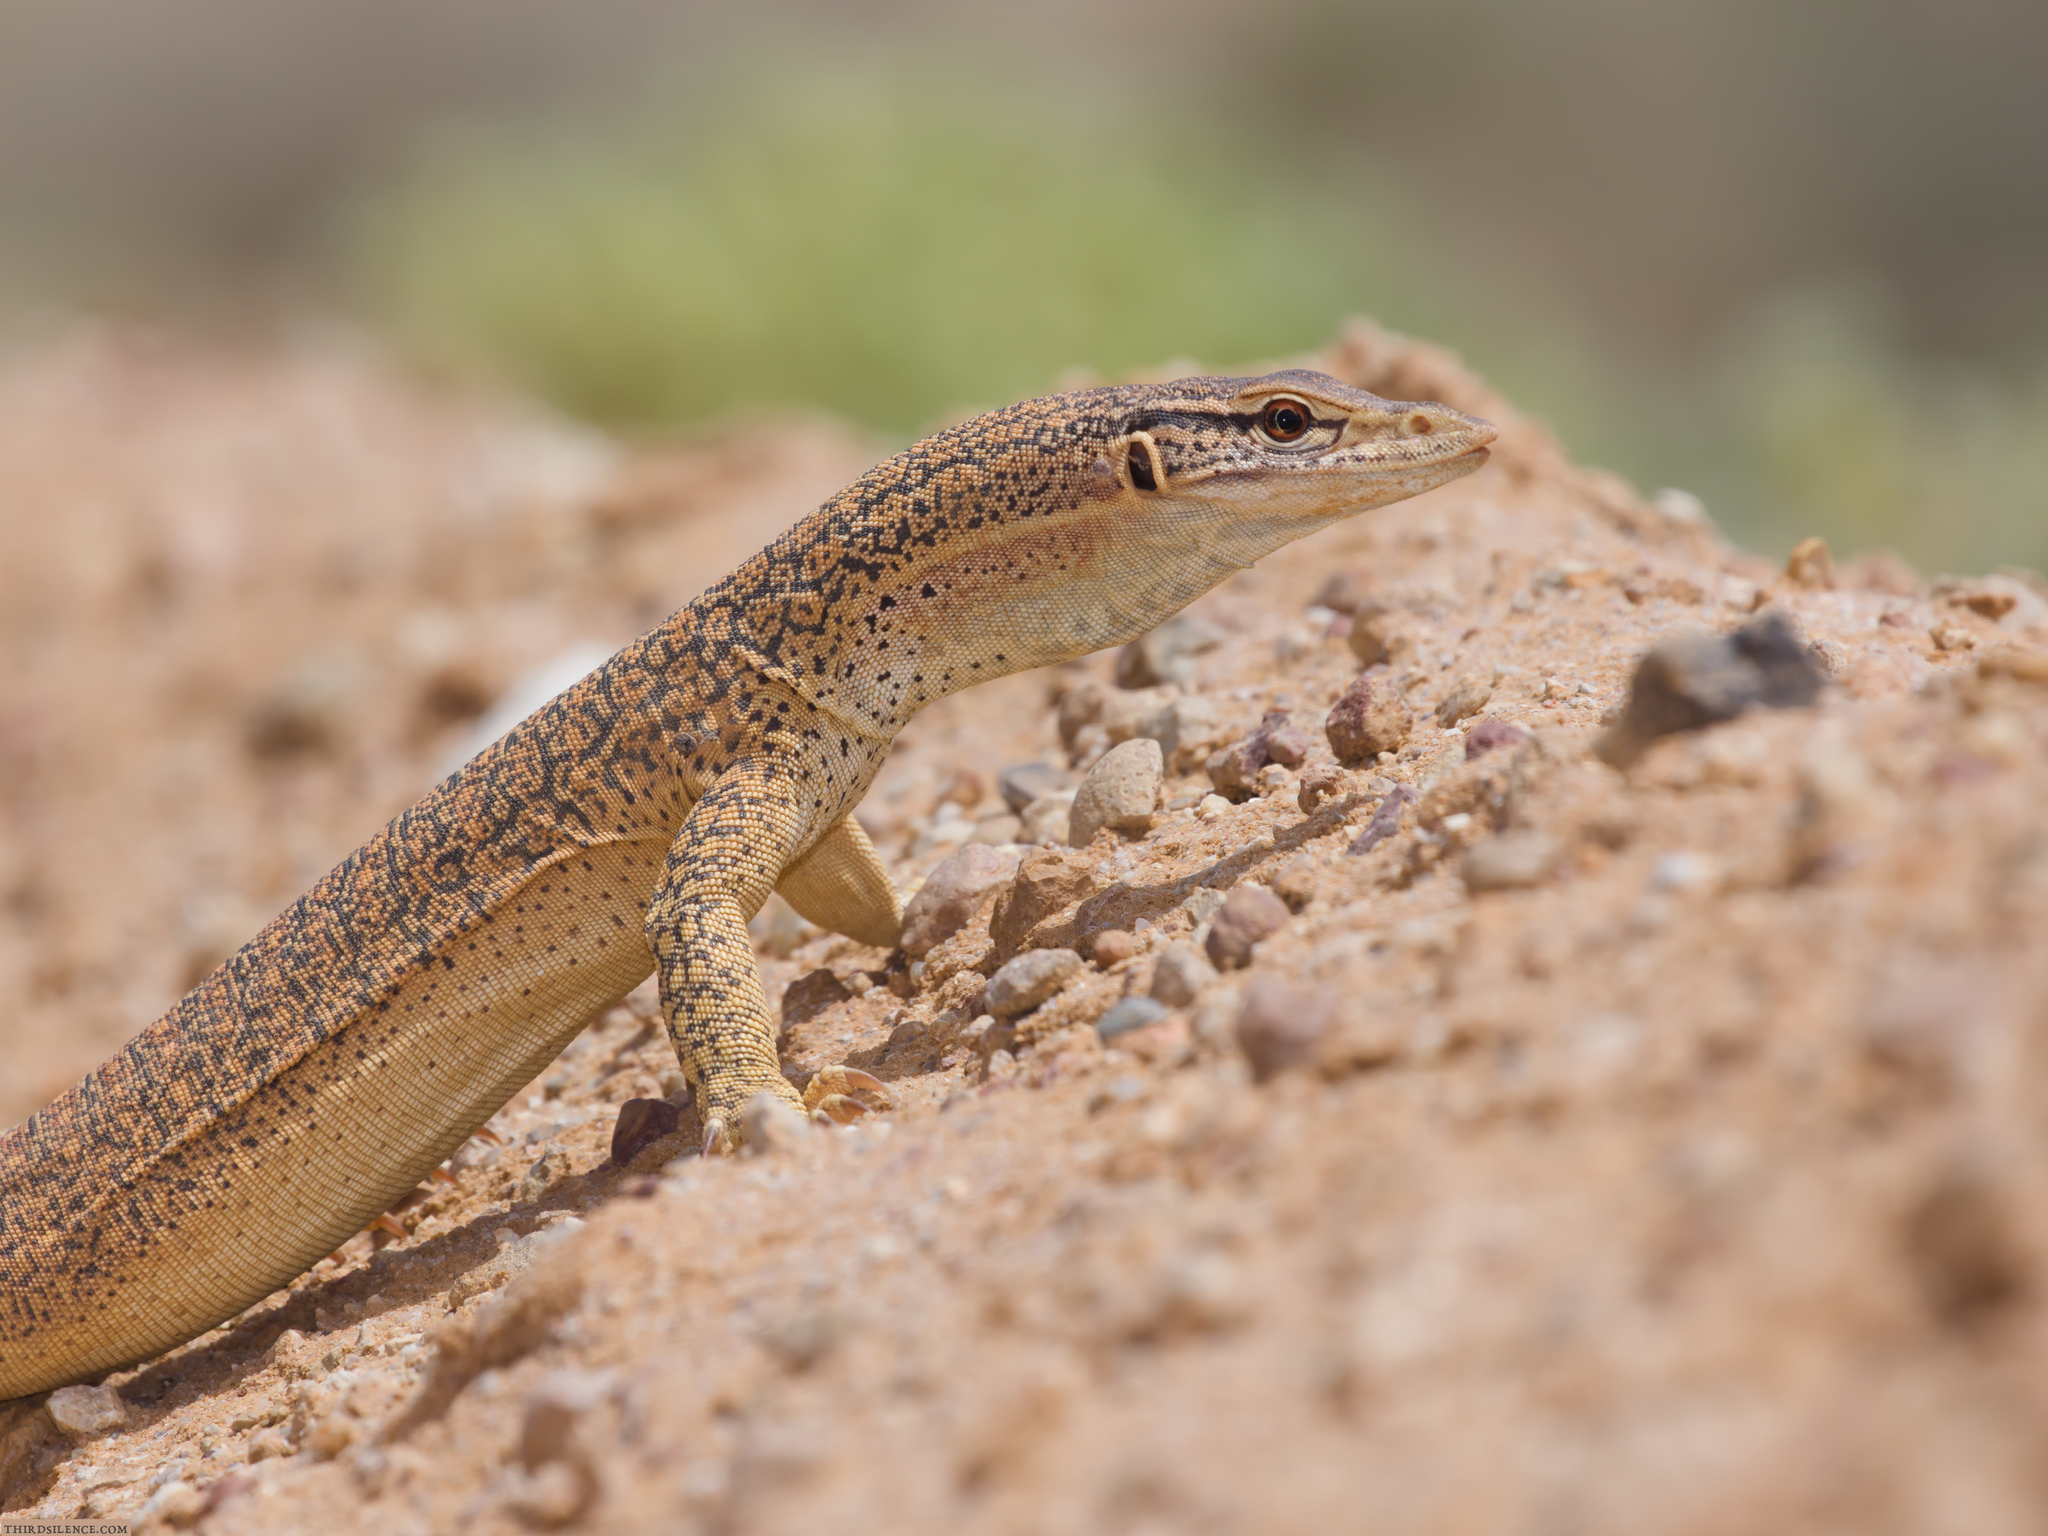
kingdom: Animalia
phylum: Chordata
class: Squamata
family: Varanidae
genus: Varanus
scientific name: Varanus gouldii
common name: Gould's goanna
